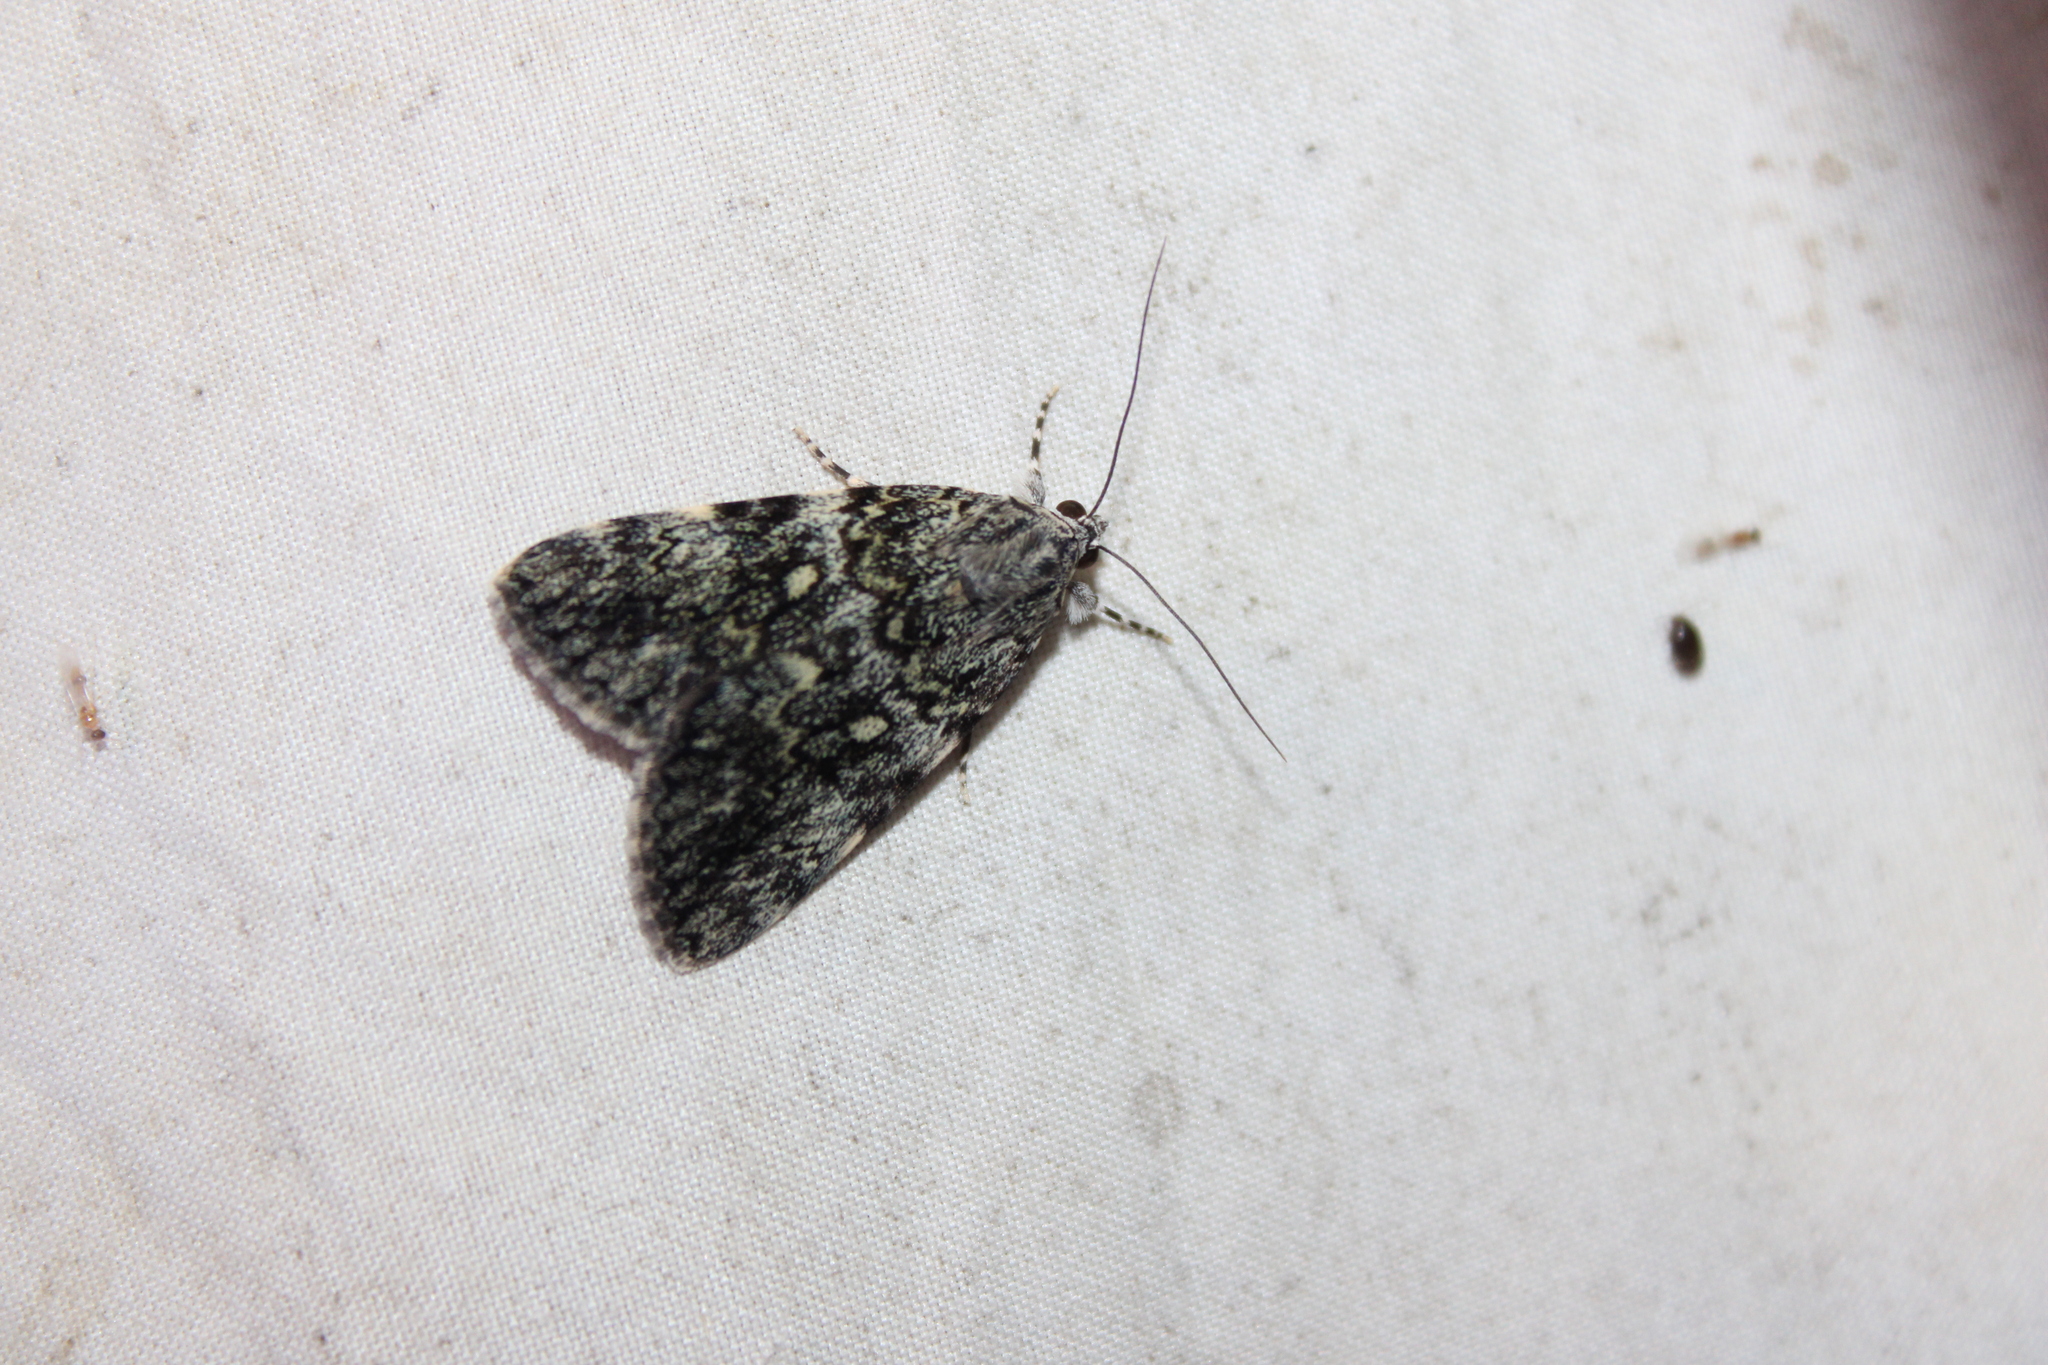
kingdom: Animalia
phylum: Arthropoda
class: Insecta
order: Lepidoptera
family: Erebidae
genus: Catocala
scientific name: Catocala lineella
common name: Little lined underwing
